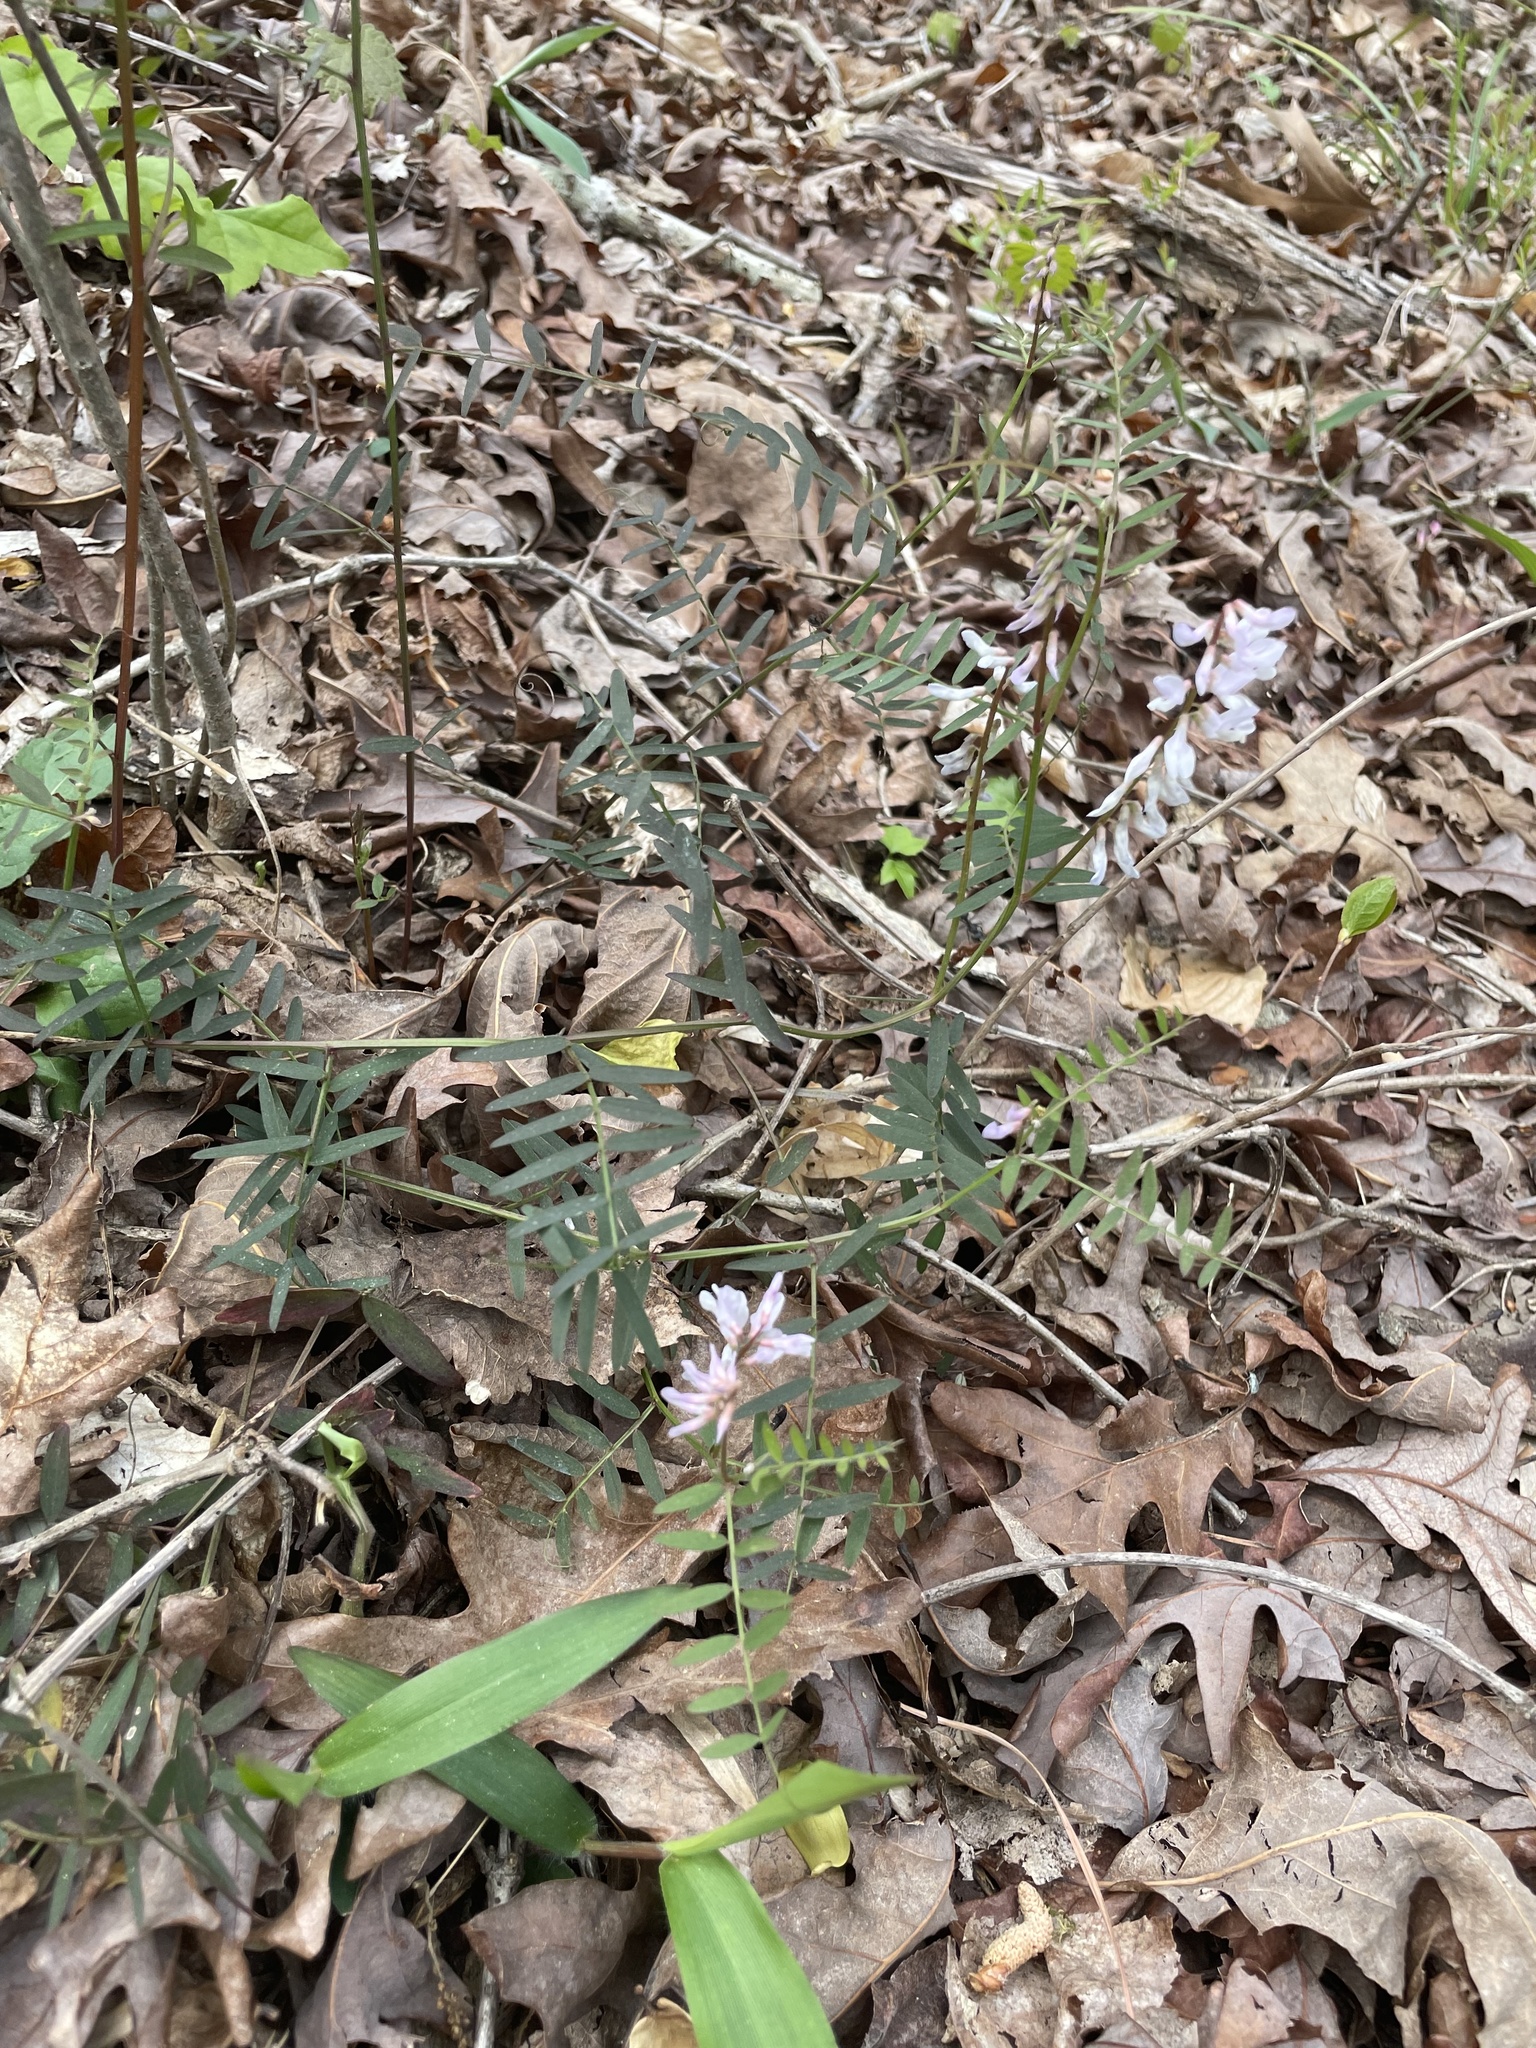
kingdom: Plantae
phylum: Tracheophyta
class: Magnoliopsida
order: Fabales
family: Fabaceae
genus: Vicia
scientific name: Vicia caroliniana
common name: Carolina vetch
